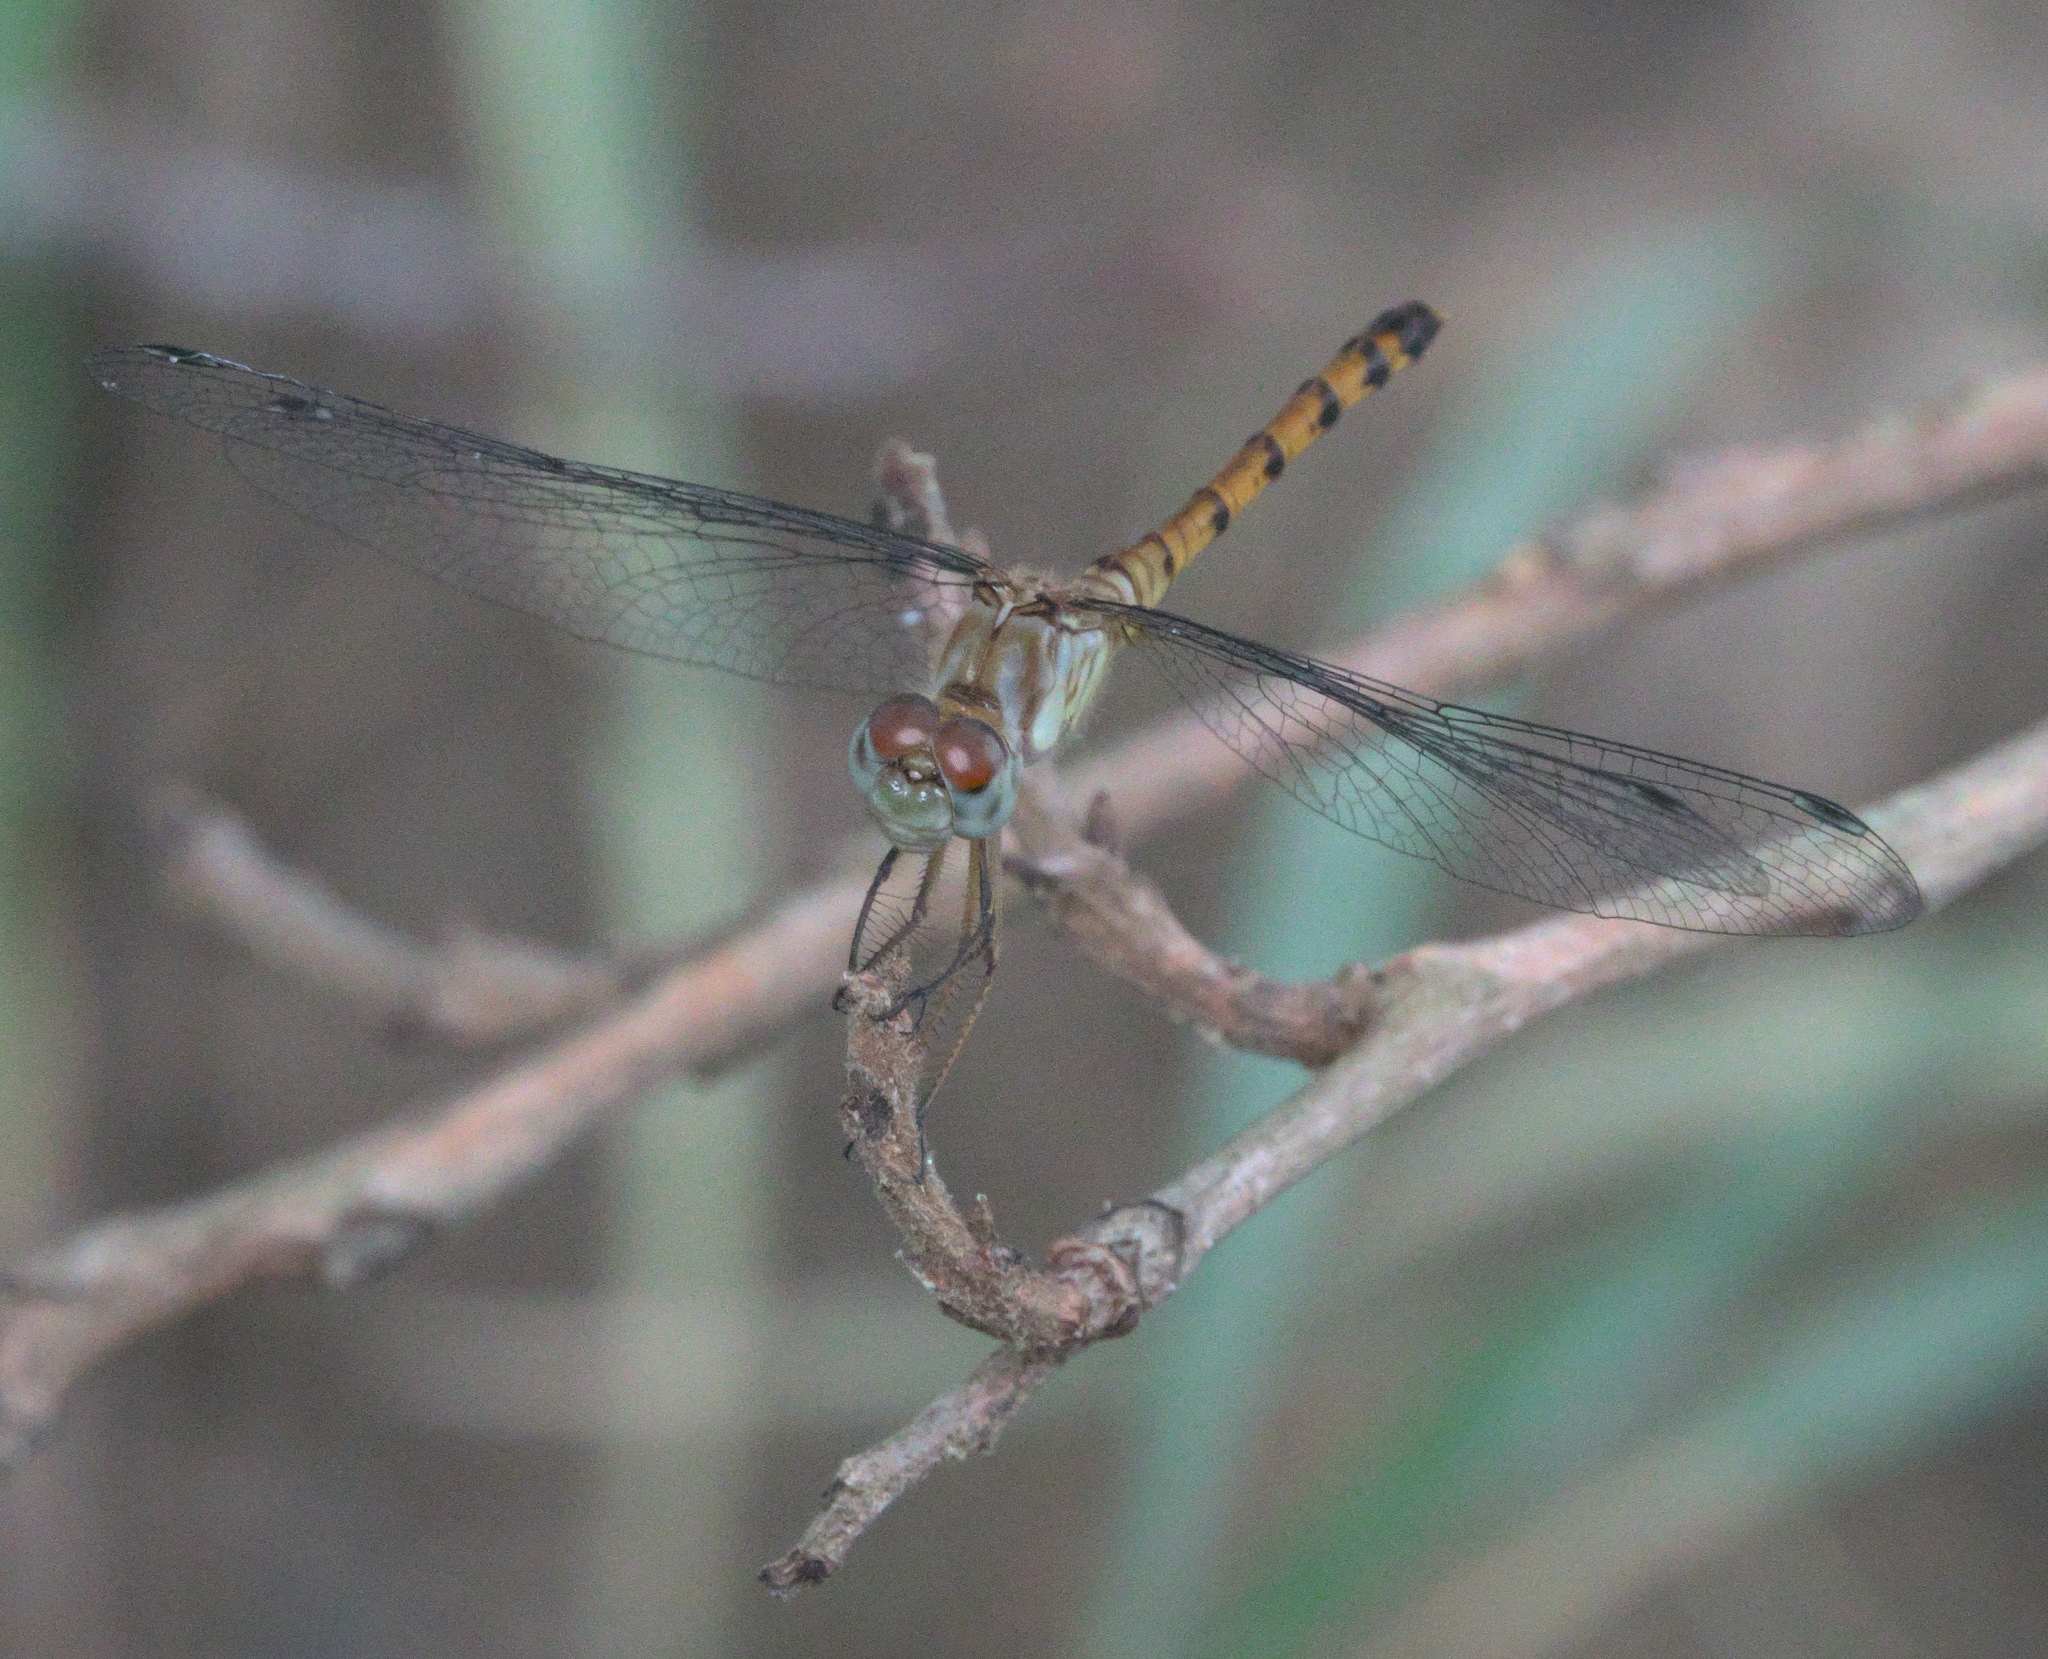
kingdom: Animalia
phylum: Arthropoda
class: Insecta
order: Odonata
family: Libellulidae
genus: Sympetrum
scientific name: Sympetrum ambiguum
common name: Blue-faced meadowhawk
